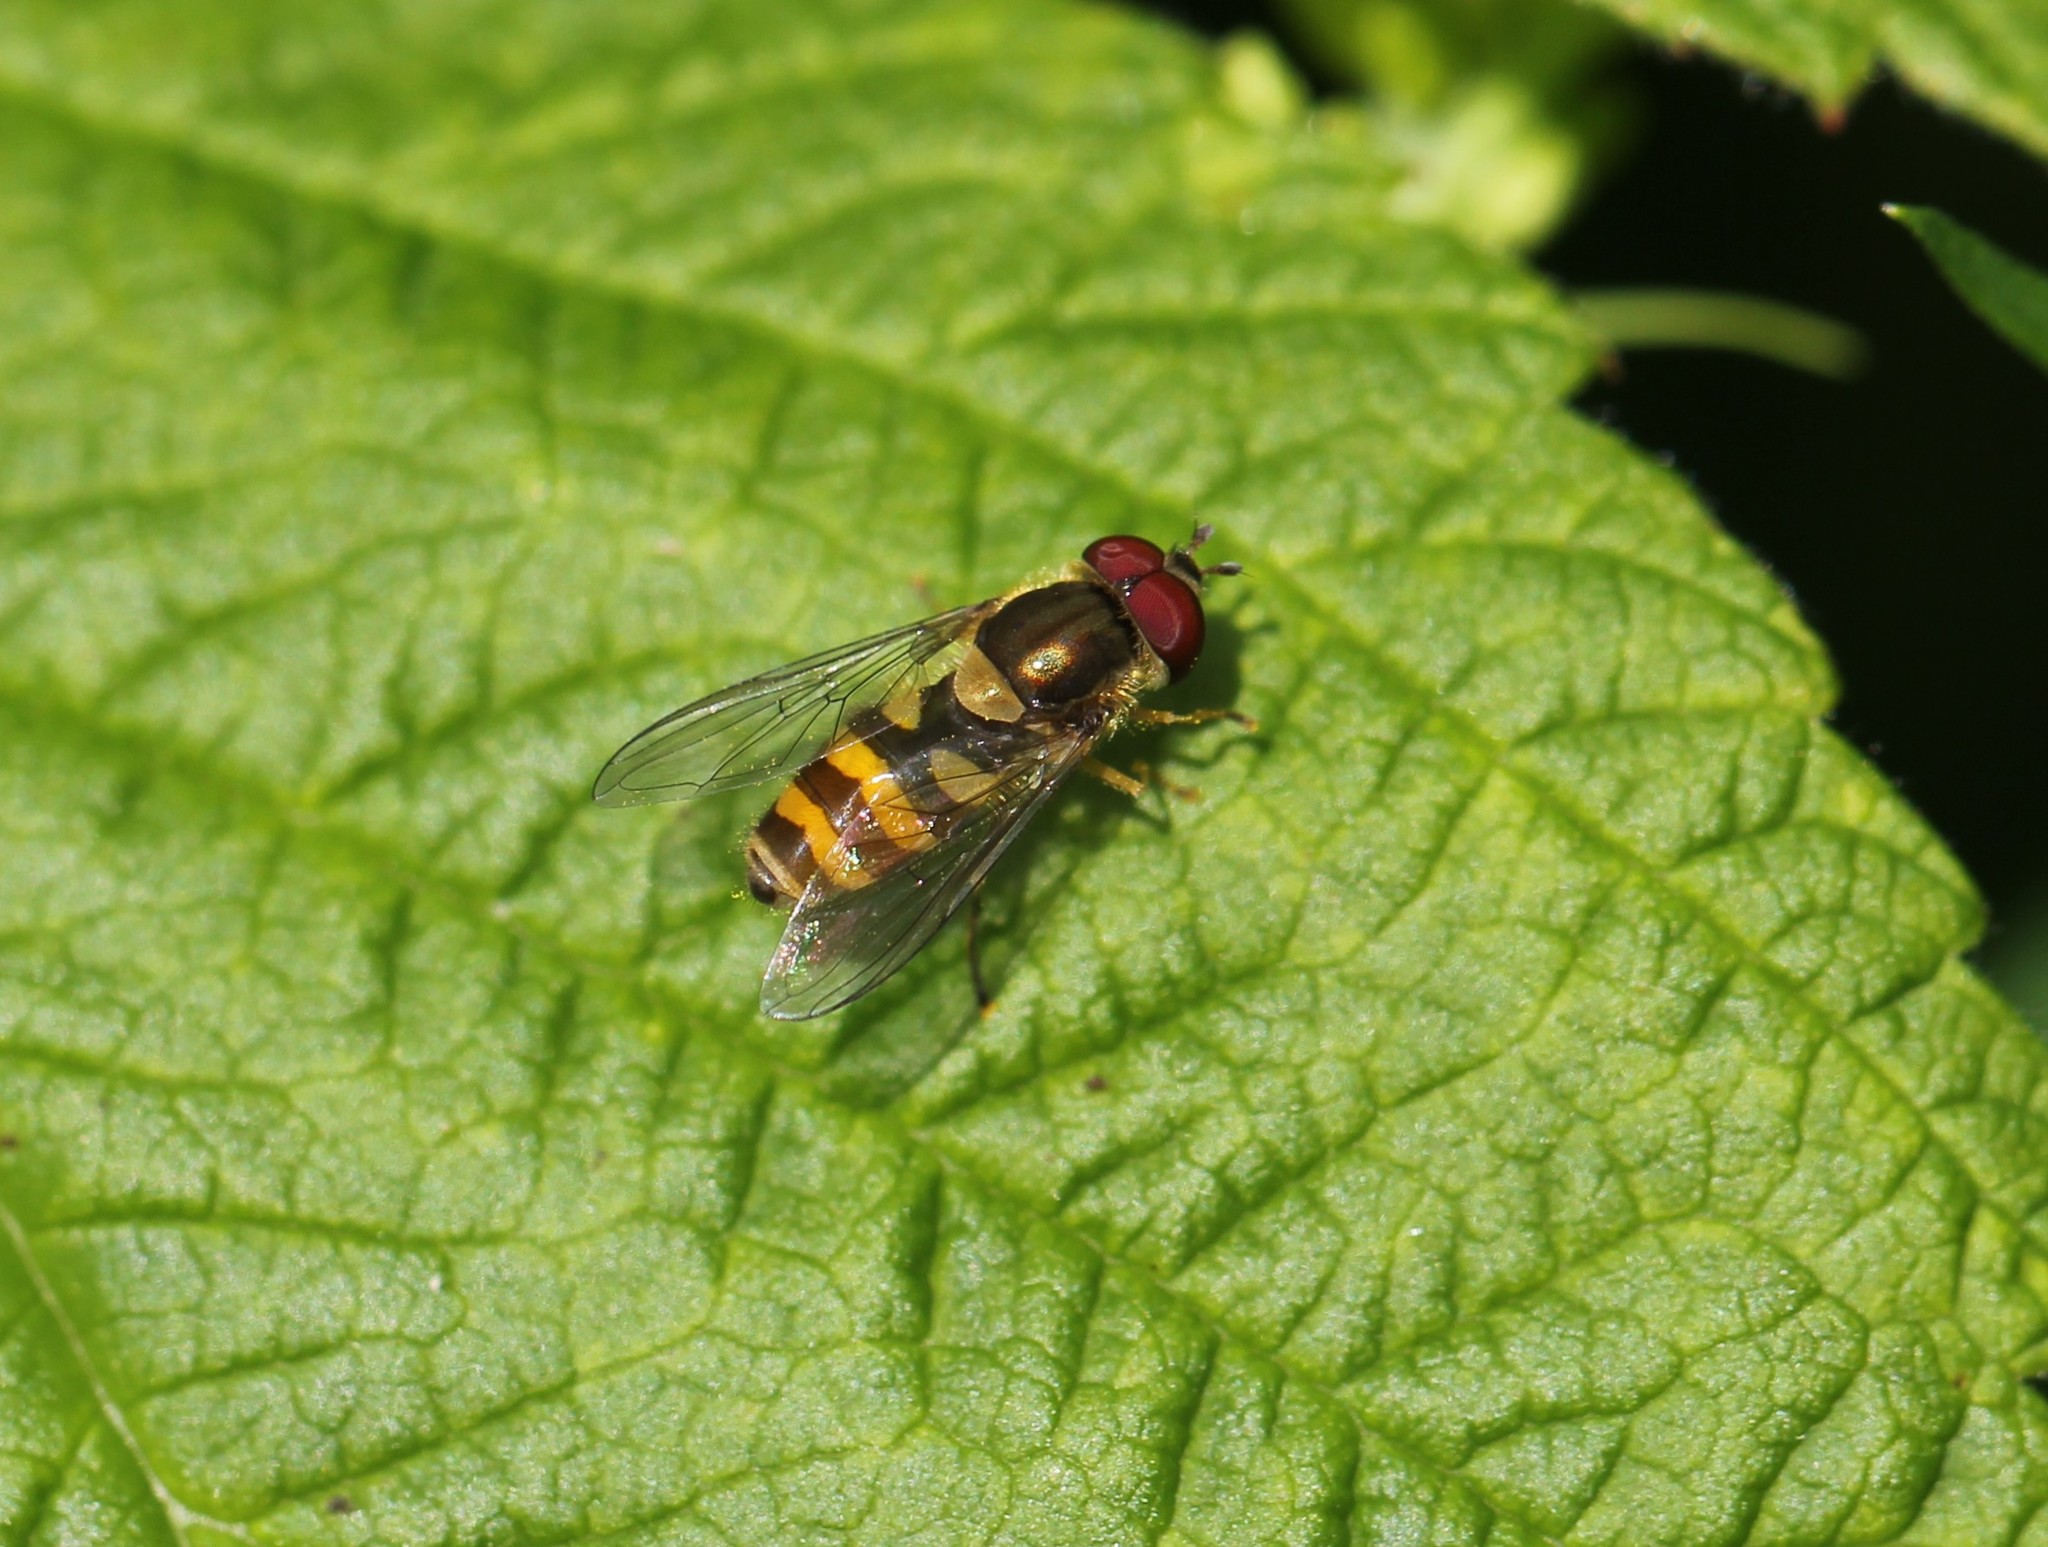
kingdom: Animalia
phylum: Arthropoda
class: Insecta
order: Diptera
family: Syrphidae
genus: Syrphus
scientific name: Syrphus
